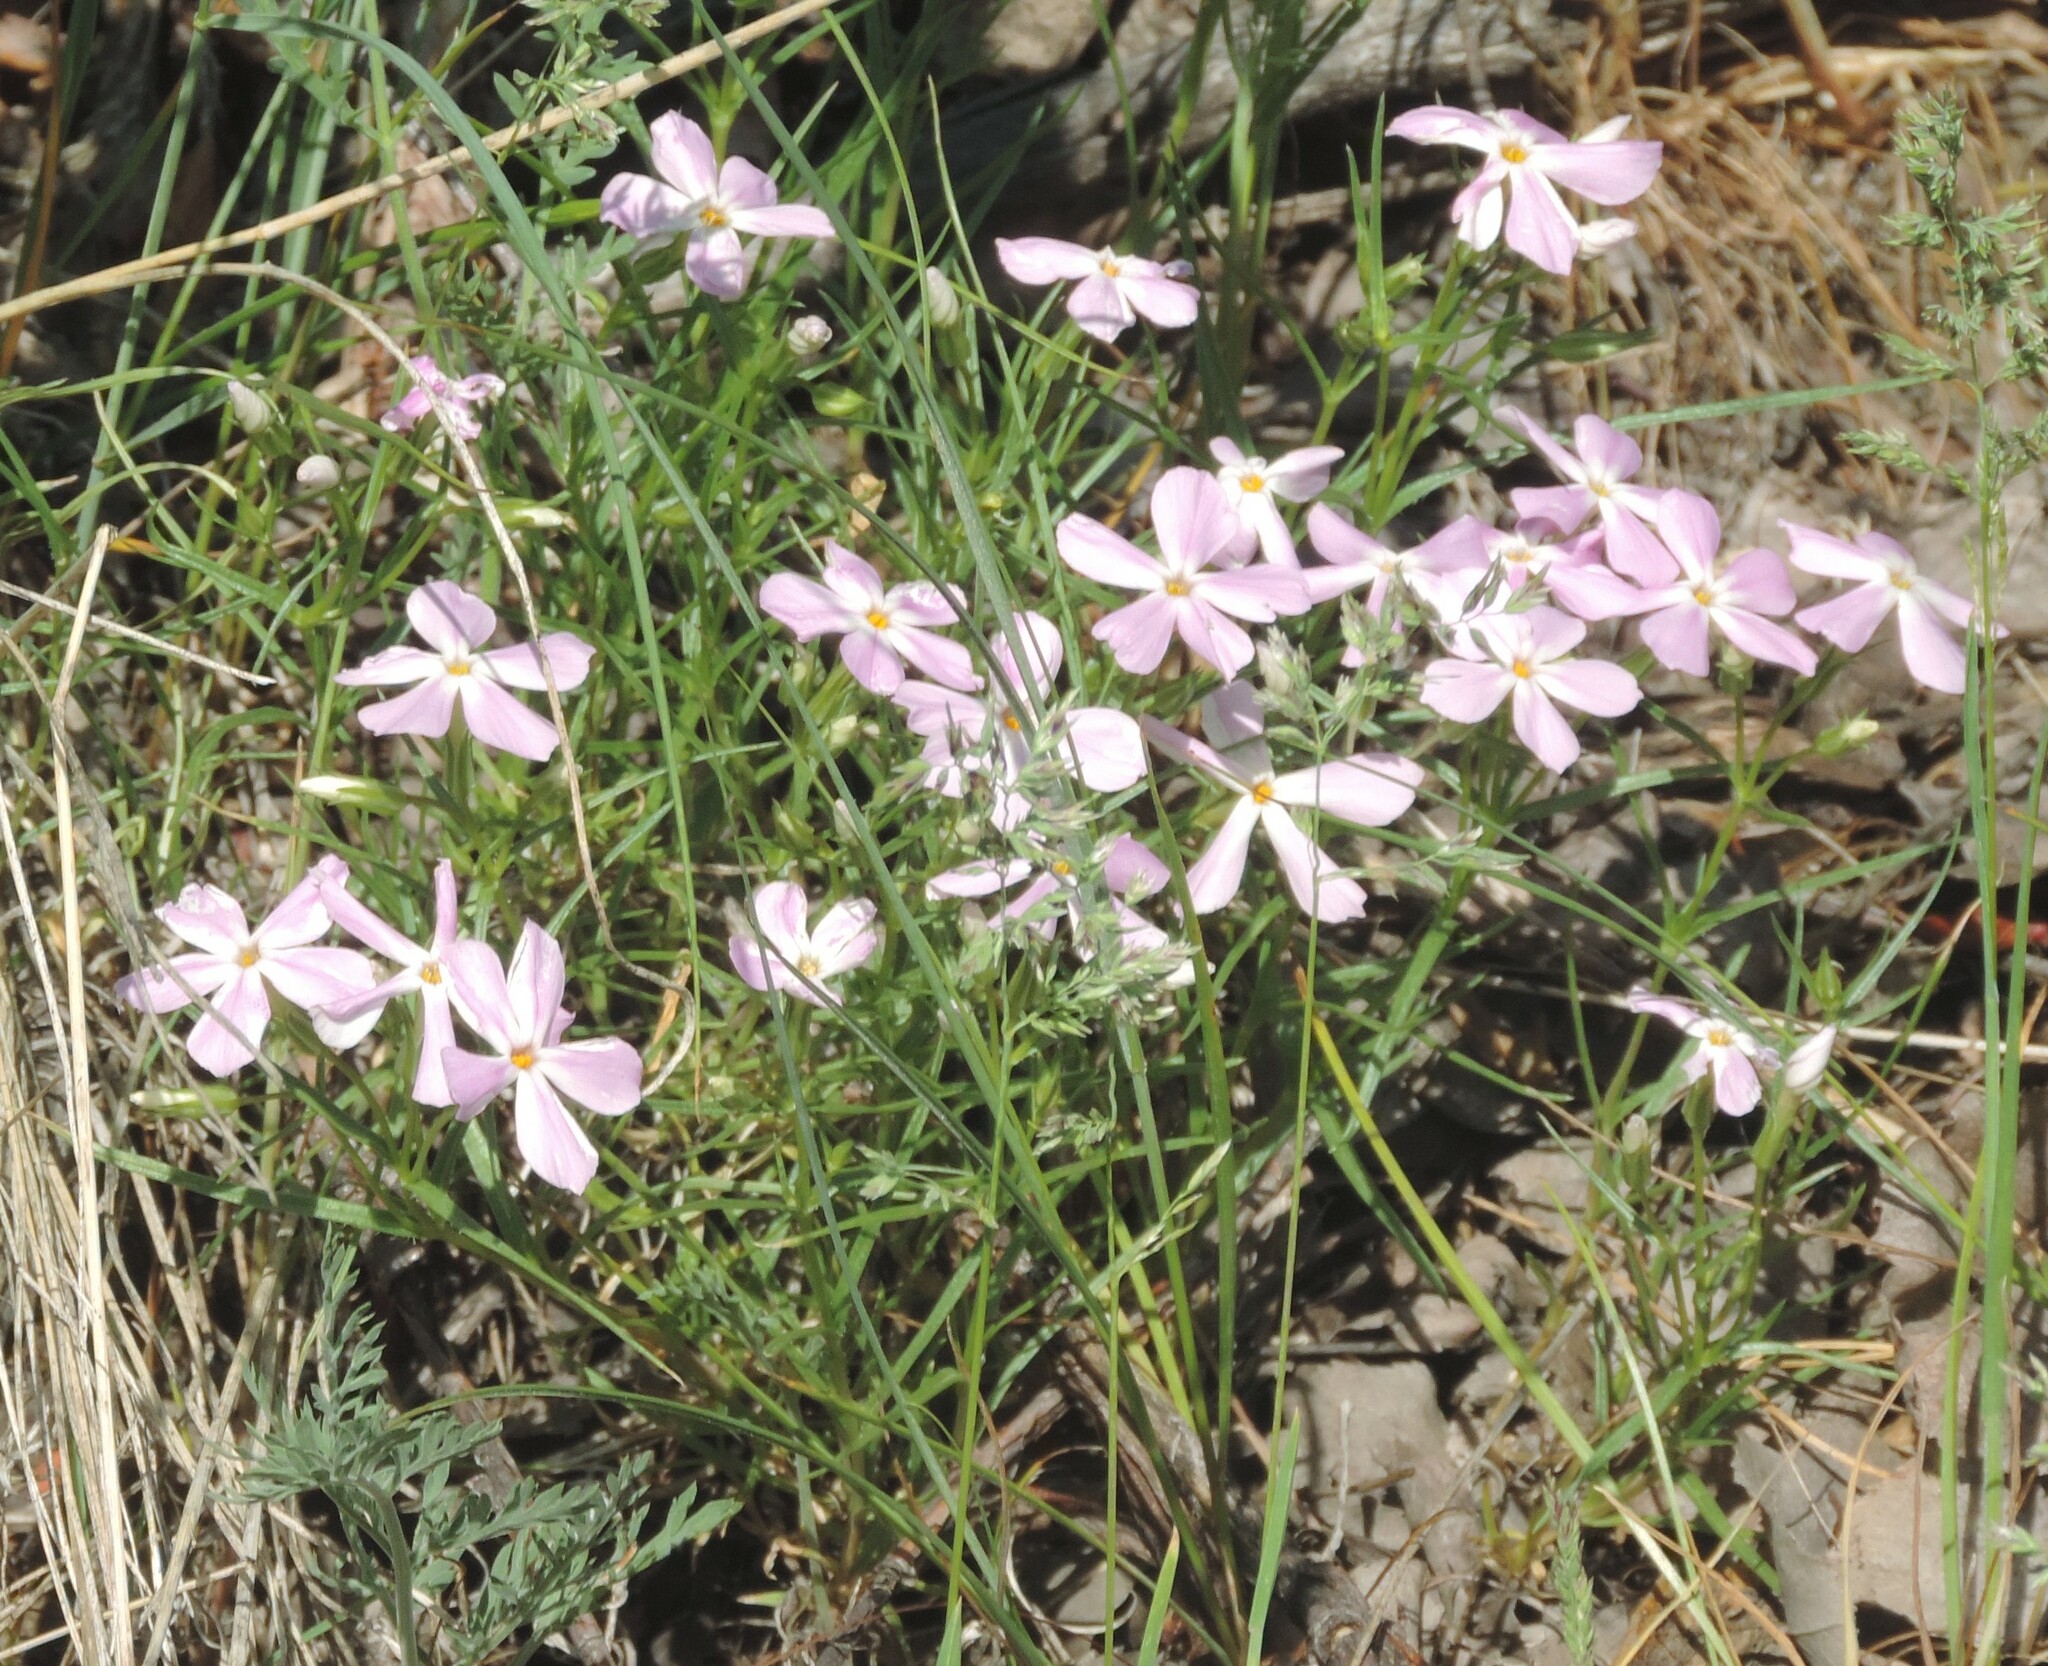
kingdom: Plantae
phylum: Tracheophyta
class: Magnoliopsida
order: Ericales
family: Polemoniaceae
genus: Phlox
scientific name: Phlox longifolia
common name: Longleaf phlox
